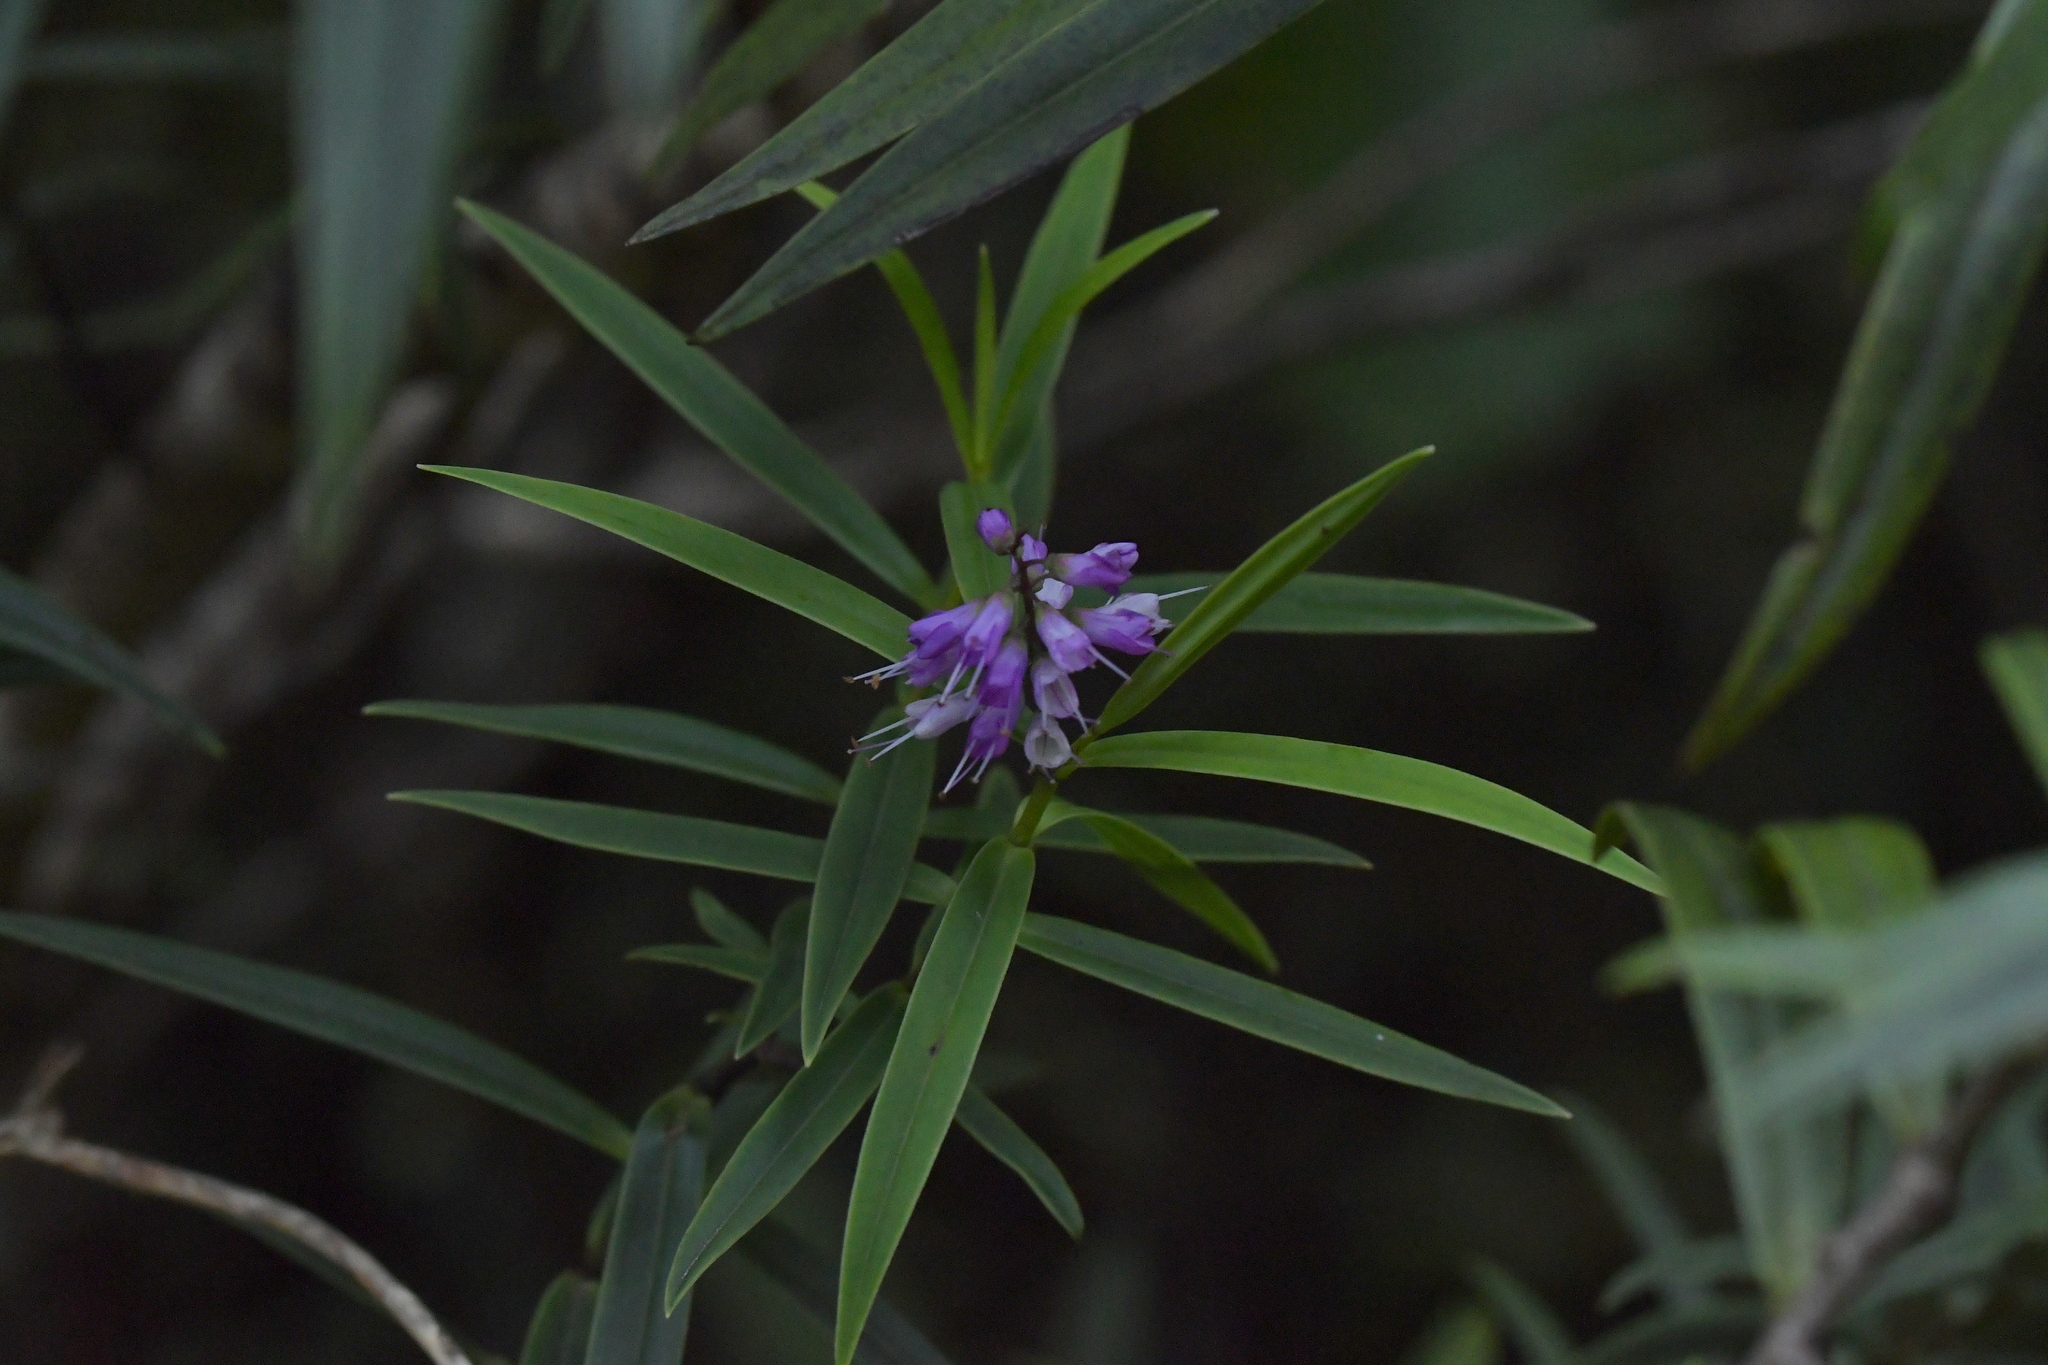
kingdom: Plantae
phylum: Tracheophyta
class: Magnoliopsida
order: Lamiales
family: Plantaginaceae
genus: Veronica
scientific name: Veronica macrocarpa
